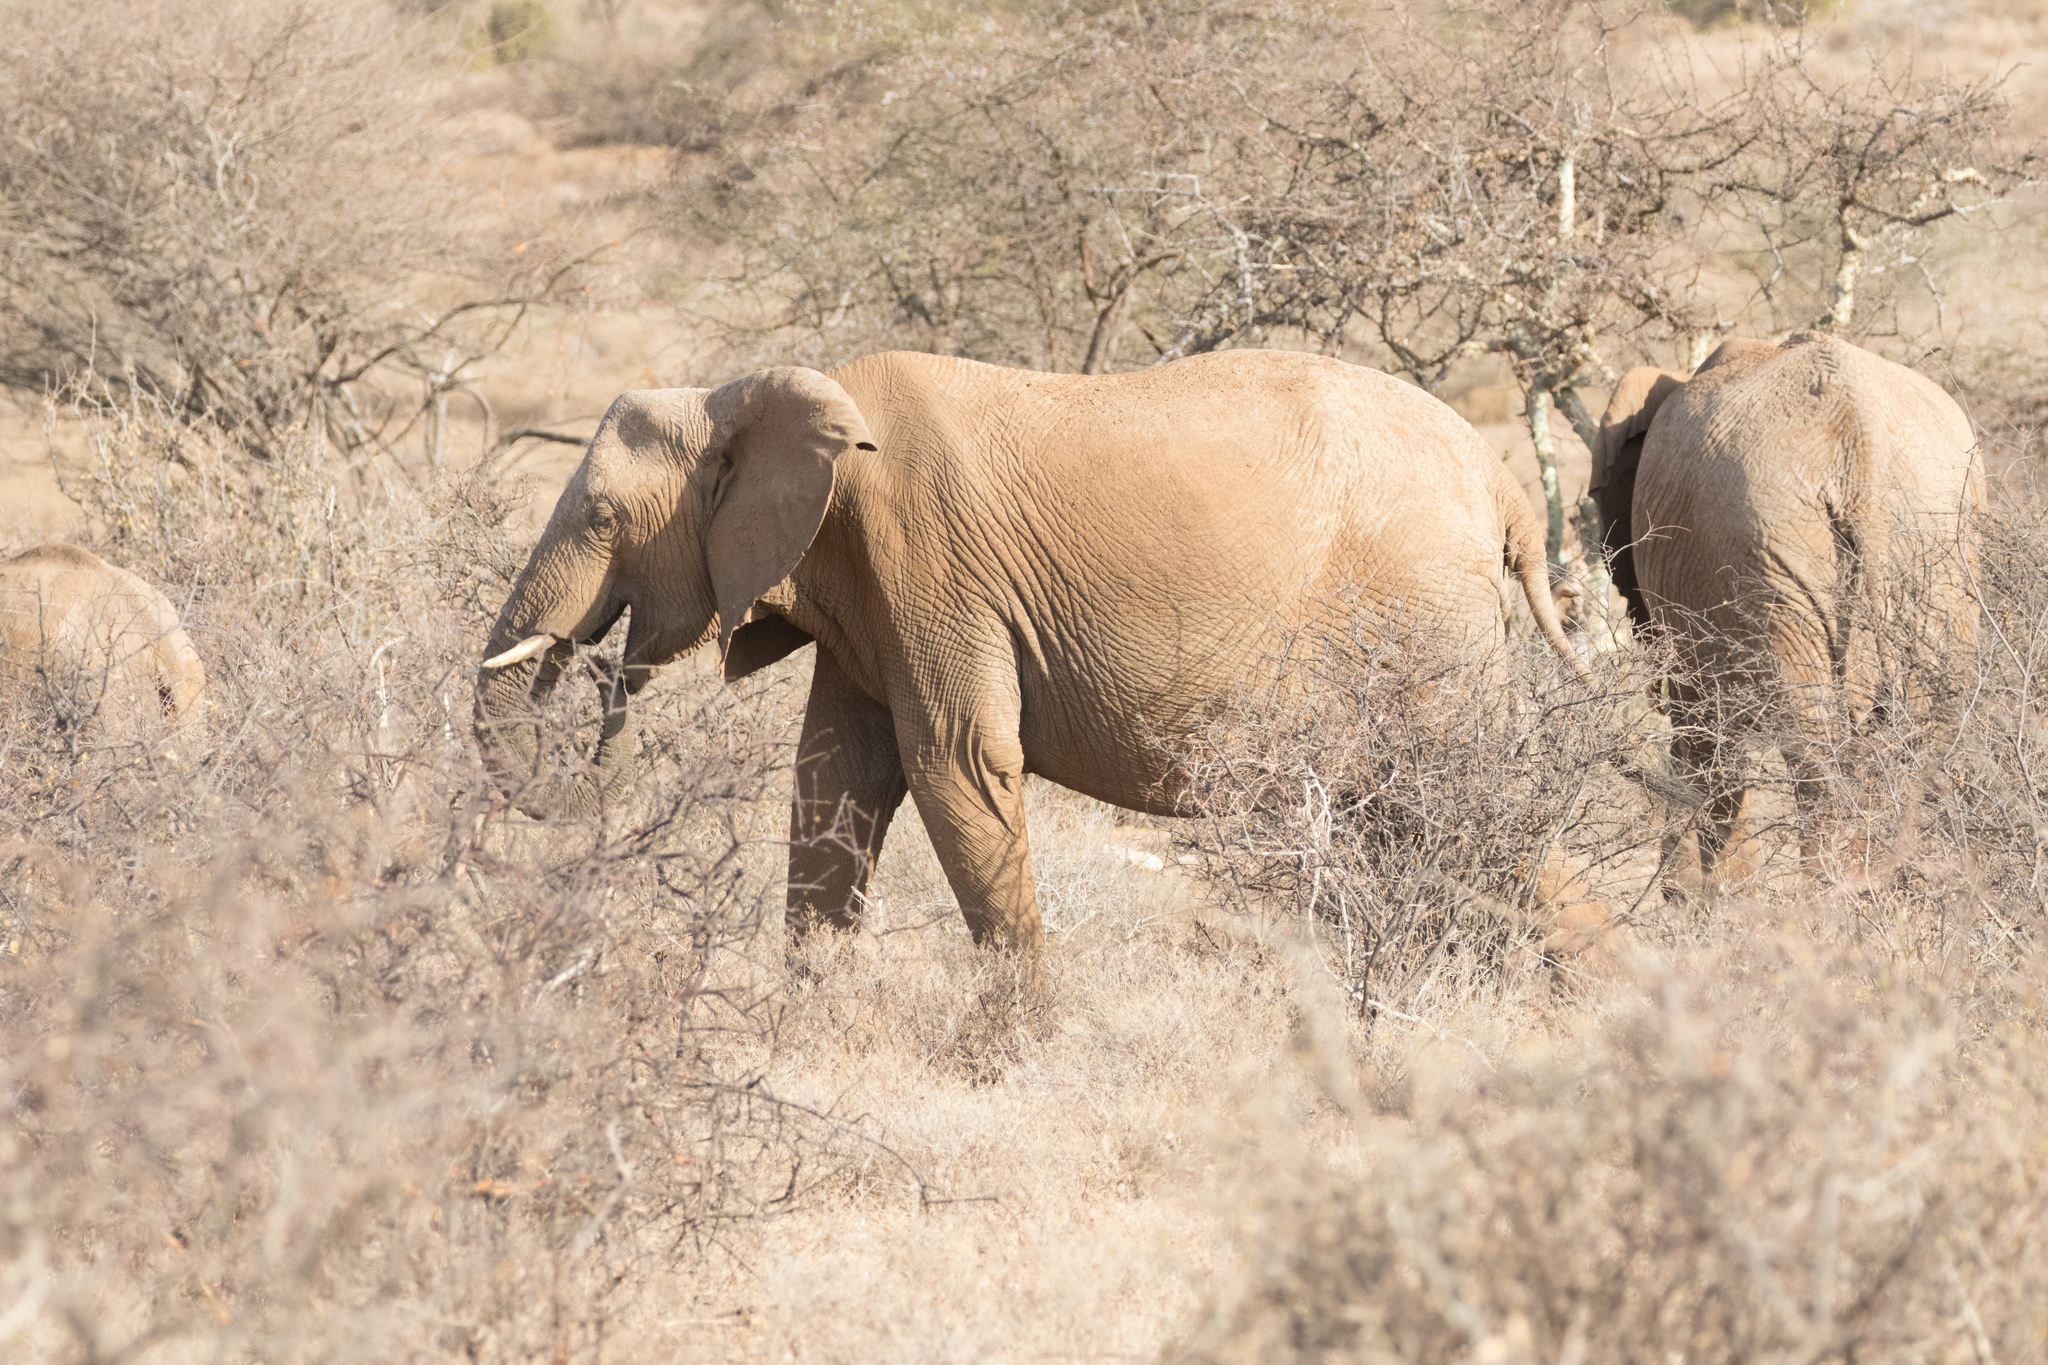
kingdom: Animalia
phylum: Chordata
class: Mammalia
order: Proboscidea
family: Elephantidae
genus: Loxodonta
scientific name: Loxodonta africana
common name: African elephant
